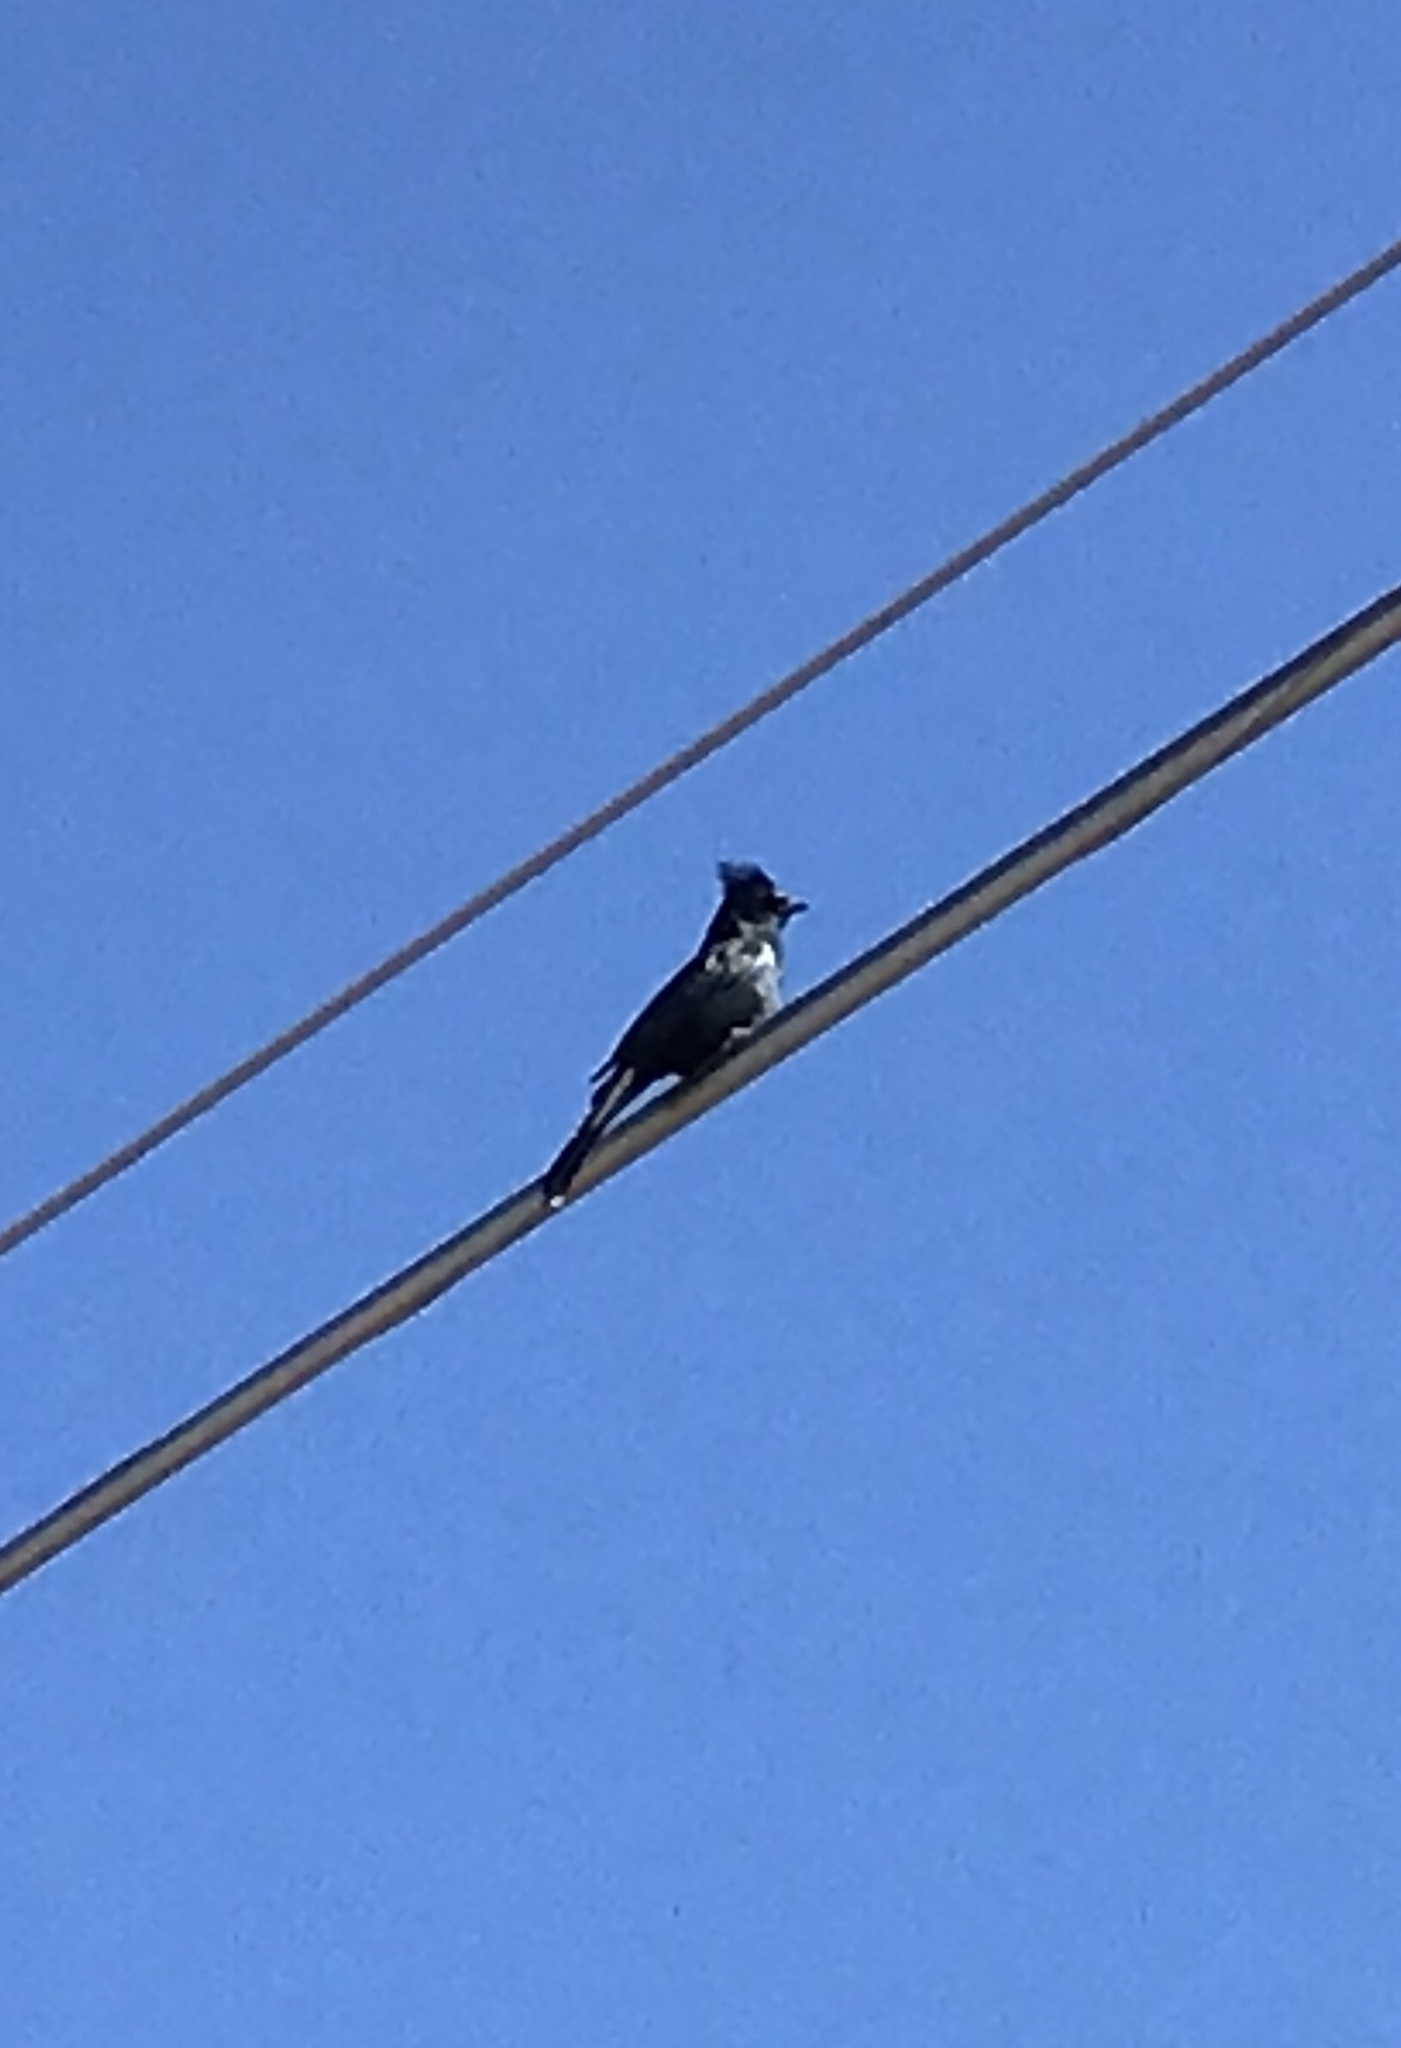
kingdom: Animalia
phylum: Chordata
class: Aves
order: Passeriformes
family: Ptilogonatidae
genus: Phainopepla
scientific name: Phainopepla nitens
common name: Phainopepla
